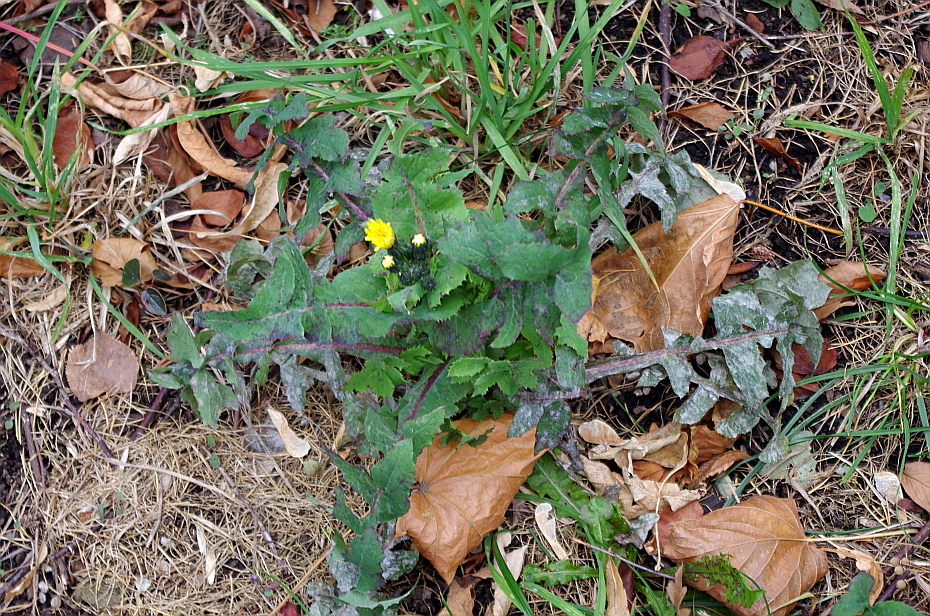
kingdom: Plantae
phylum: Tracheophyta
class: Magnoliopsida
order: Asterales
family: Asteraceae
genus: Sonchus
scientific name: Sonchus oleraceus
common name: Common sowthistle
